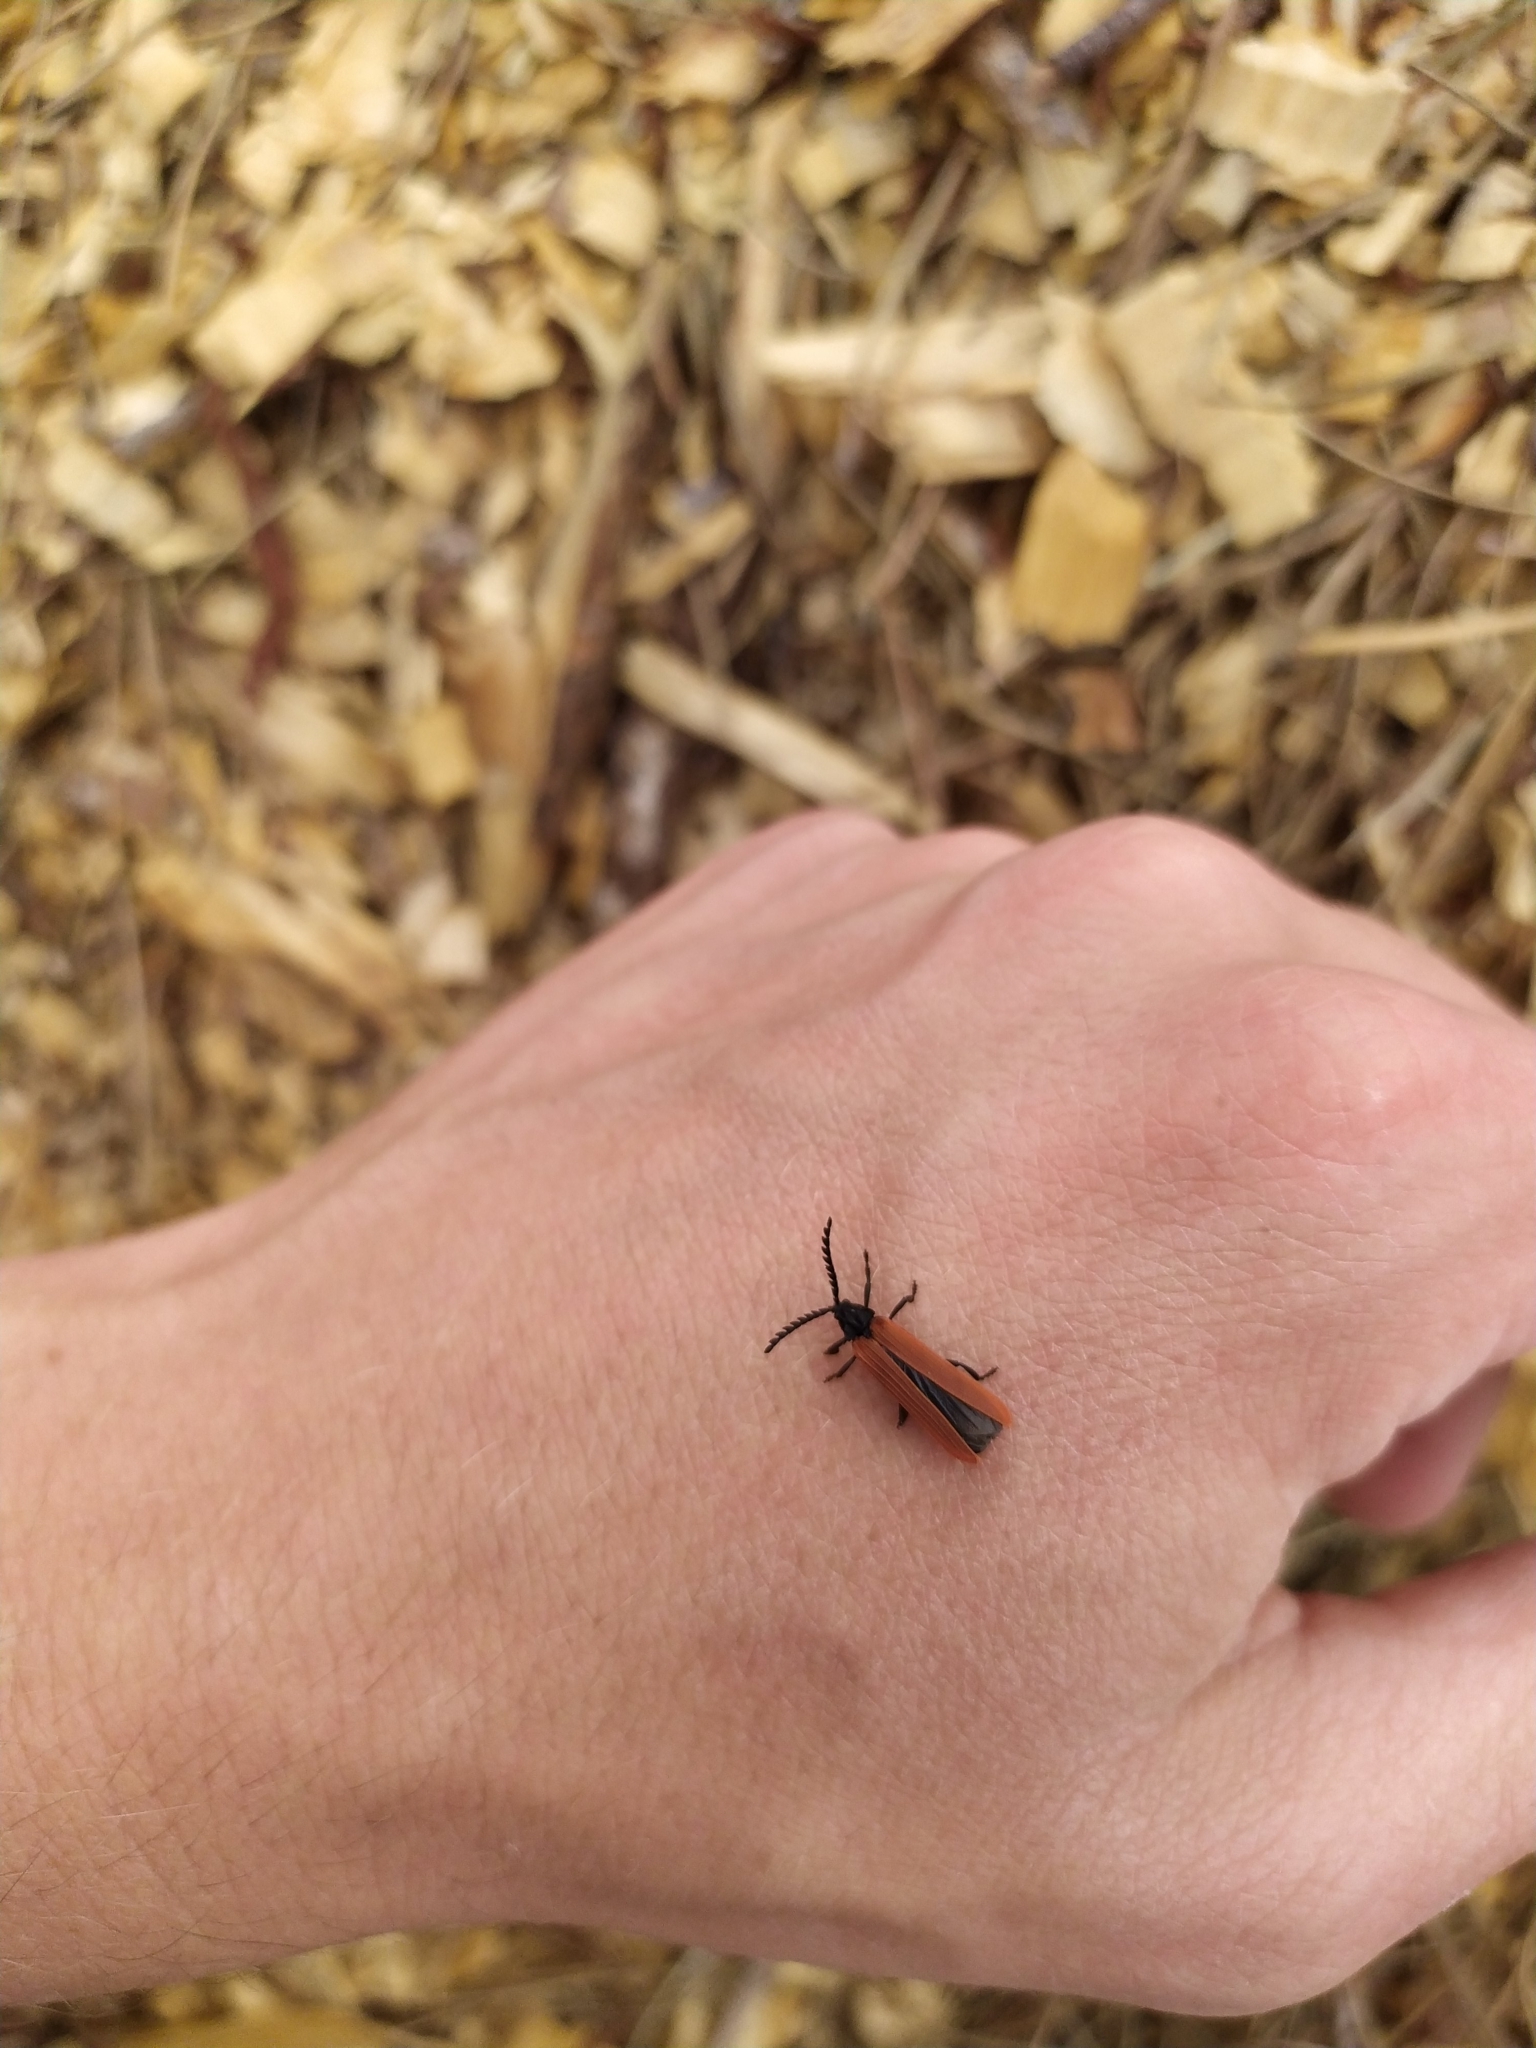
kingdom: Animalia
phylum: Arthropoda
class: Insecta
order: Coleoptera
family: Lycidae
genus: Porrostoma
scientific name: Porrostoma rufipenne
